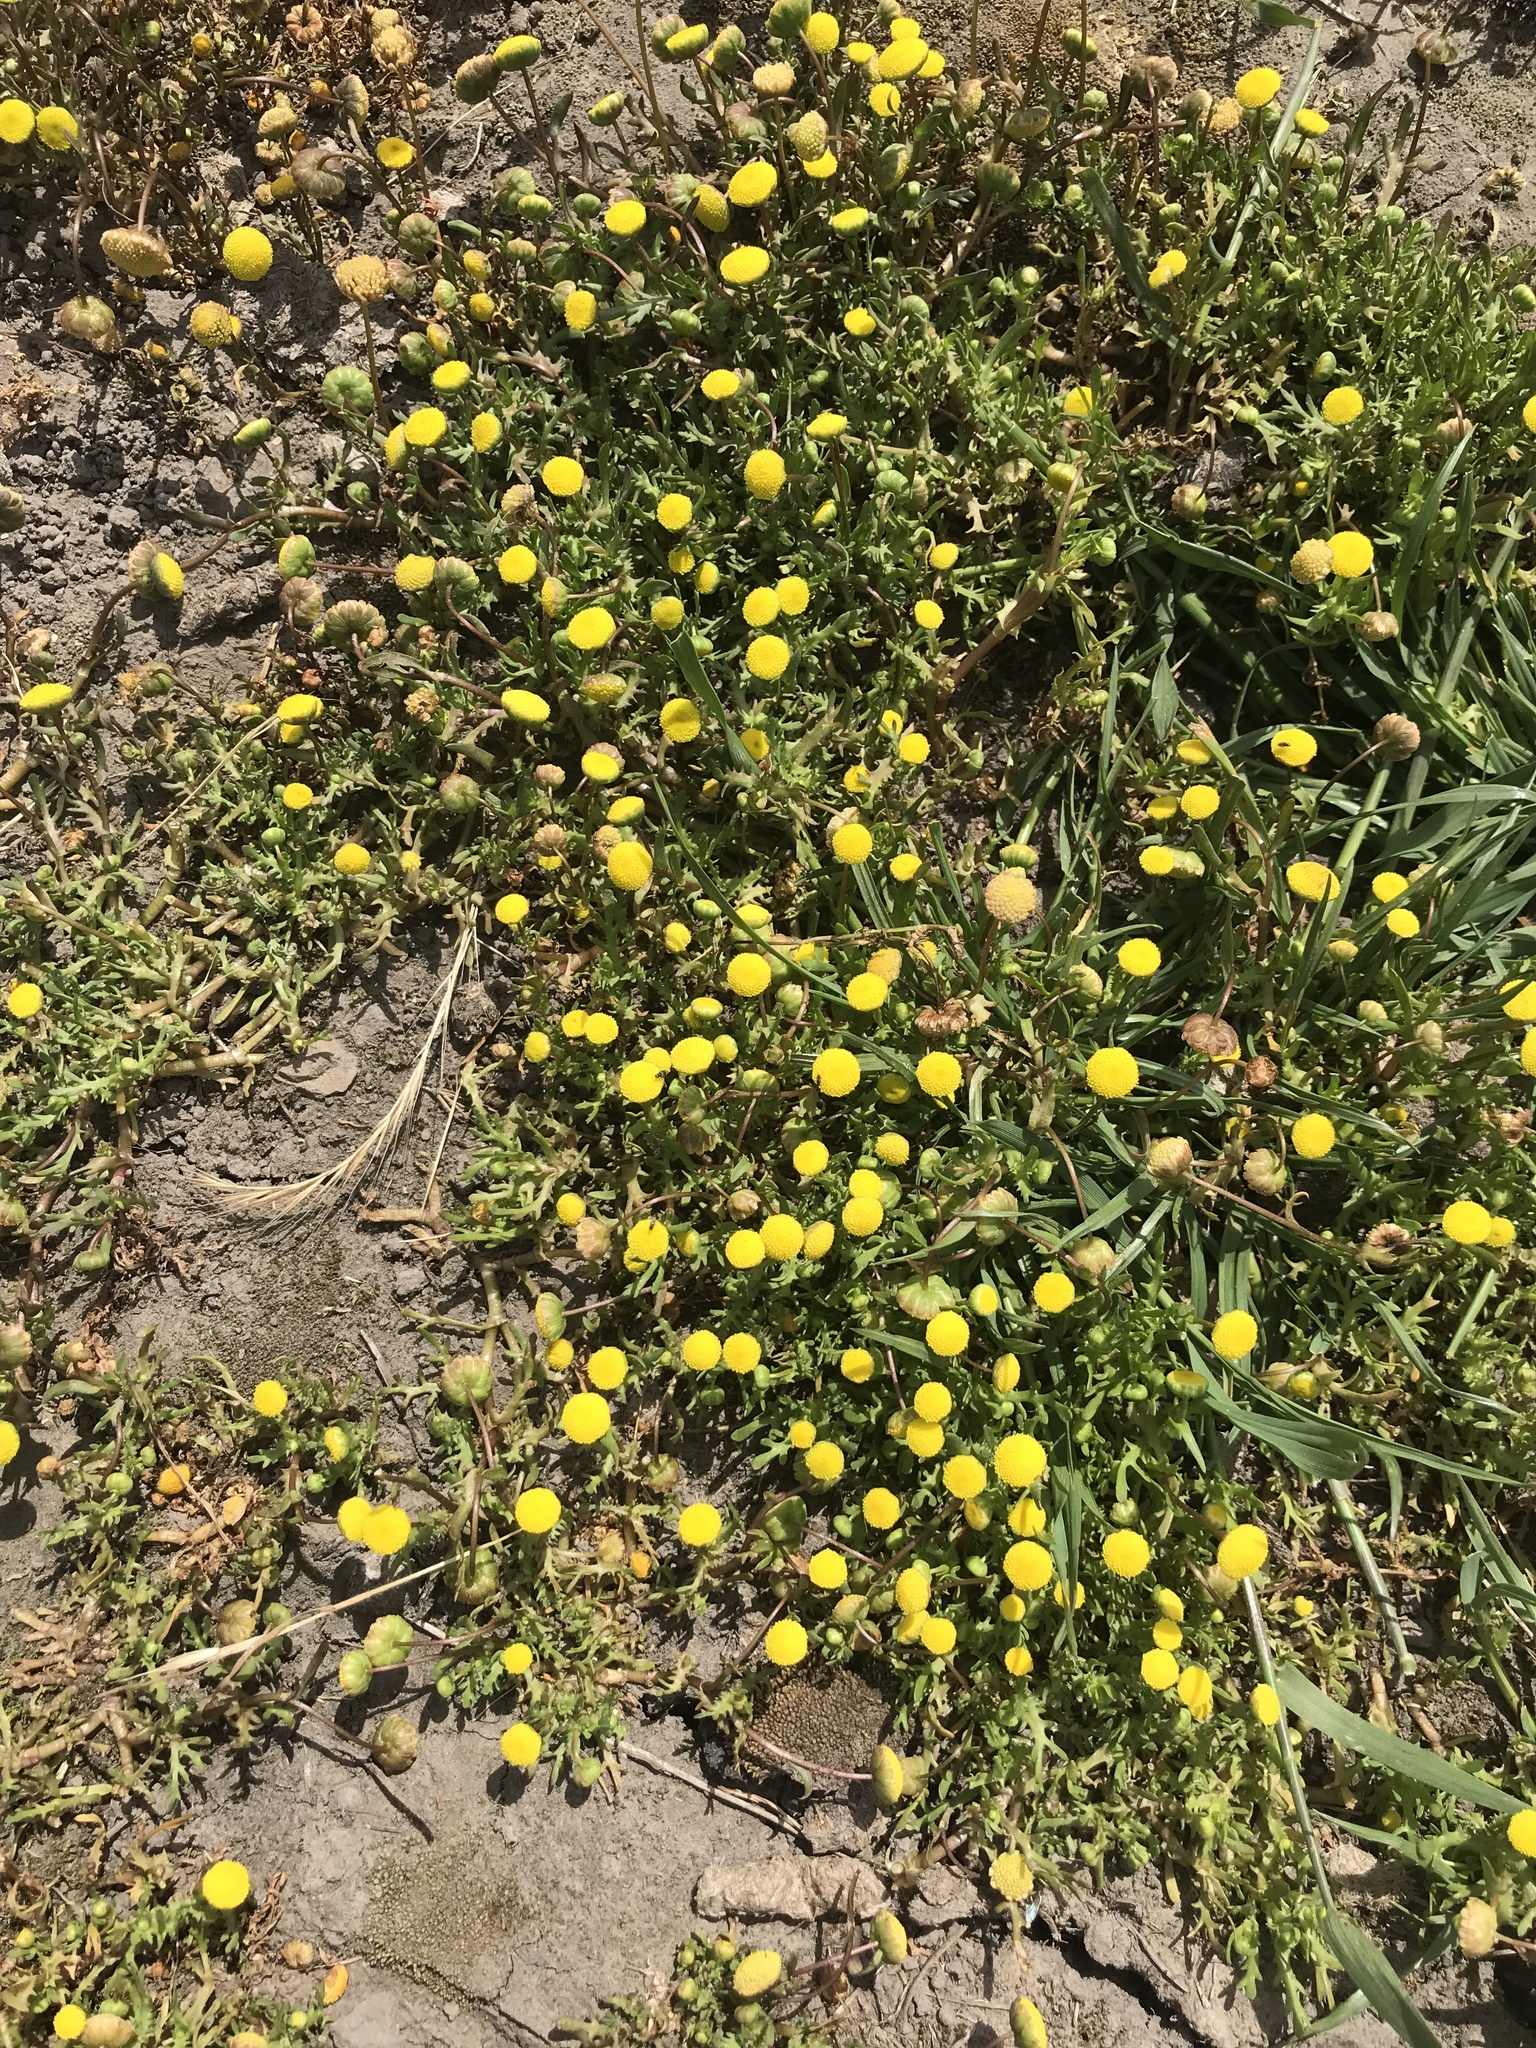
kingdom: Plantae
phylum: Tracheophyta
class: Magnoliopsida
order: Asterales
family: Asteraceae
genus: Cotula
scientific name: Cotula coronopifolia
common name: Buttonweed
